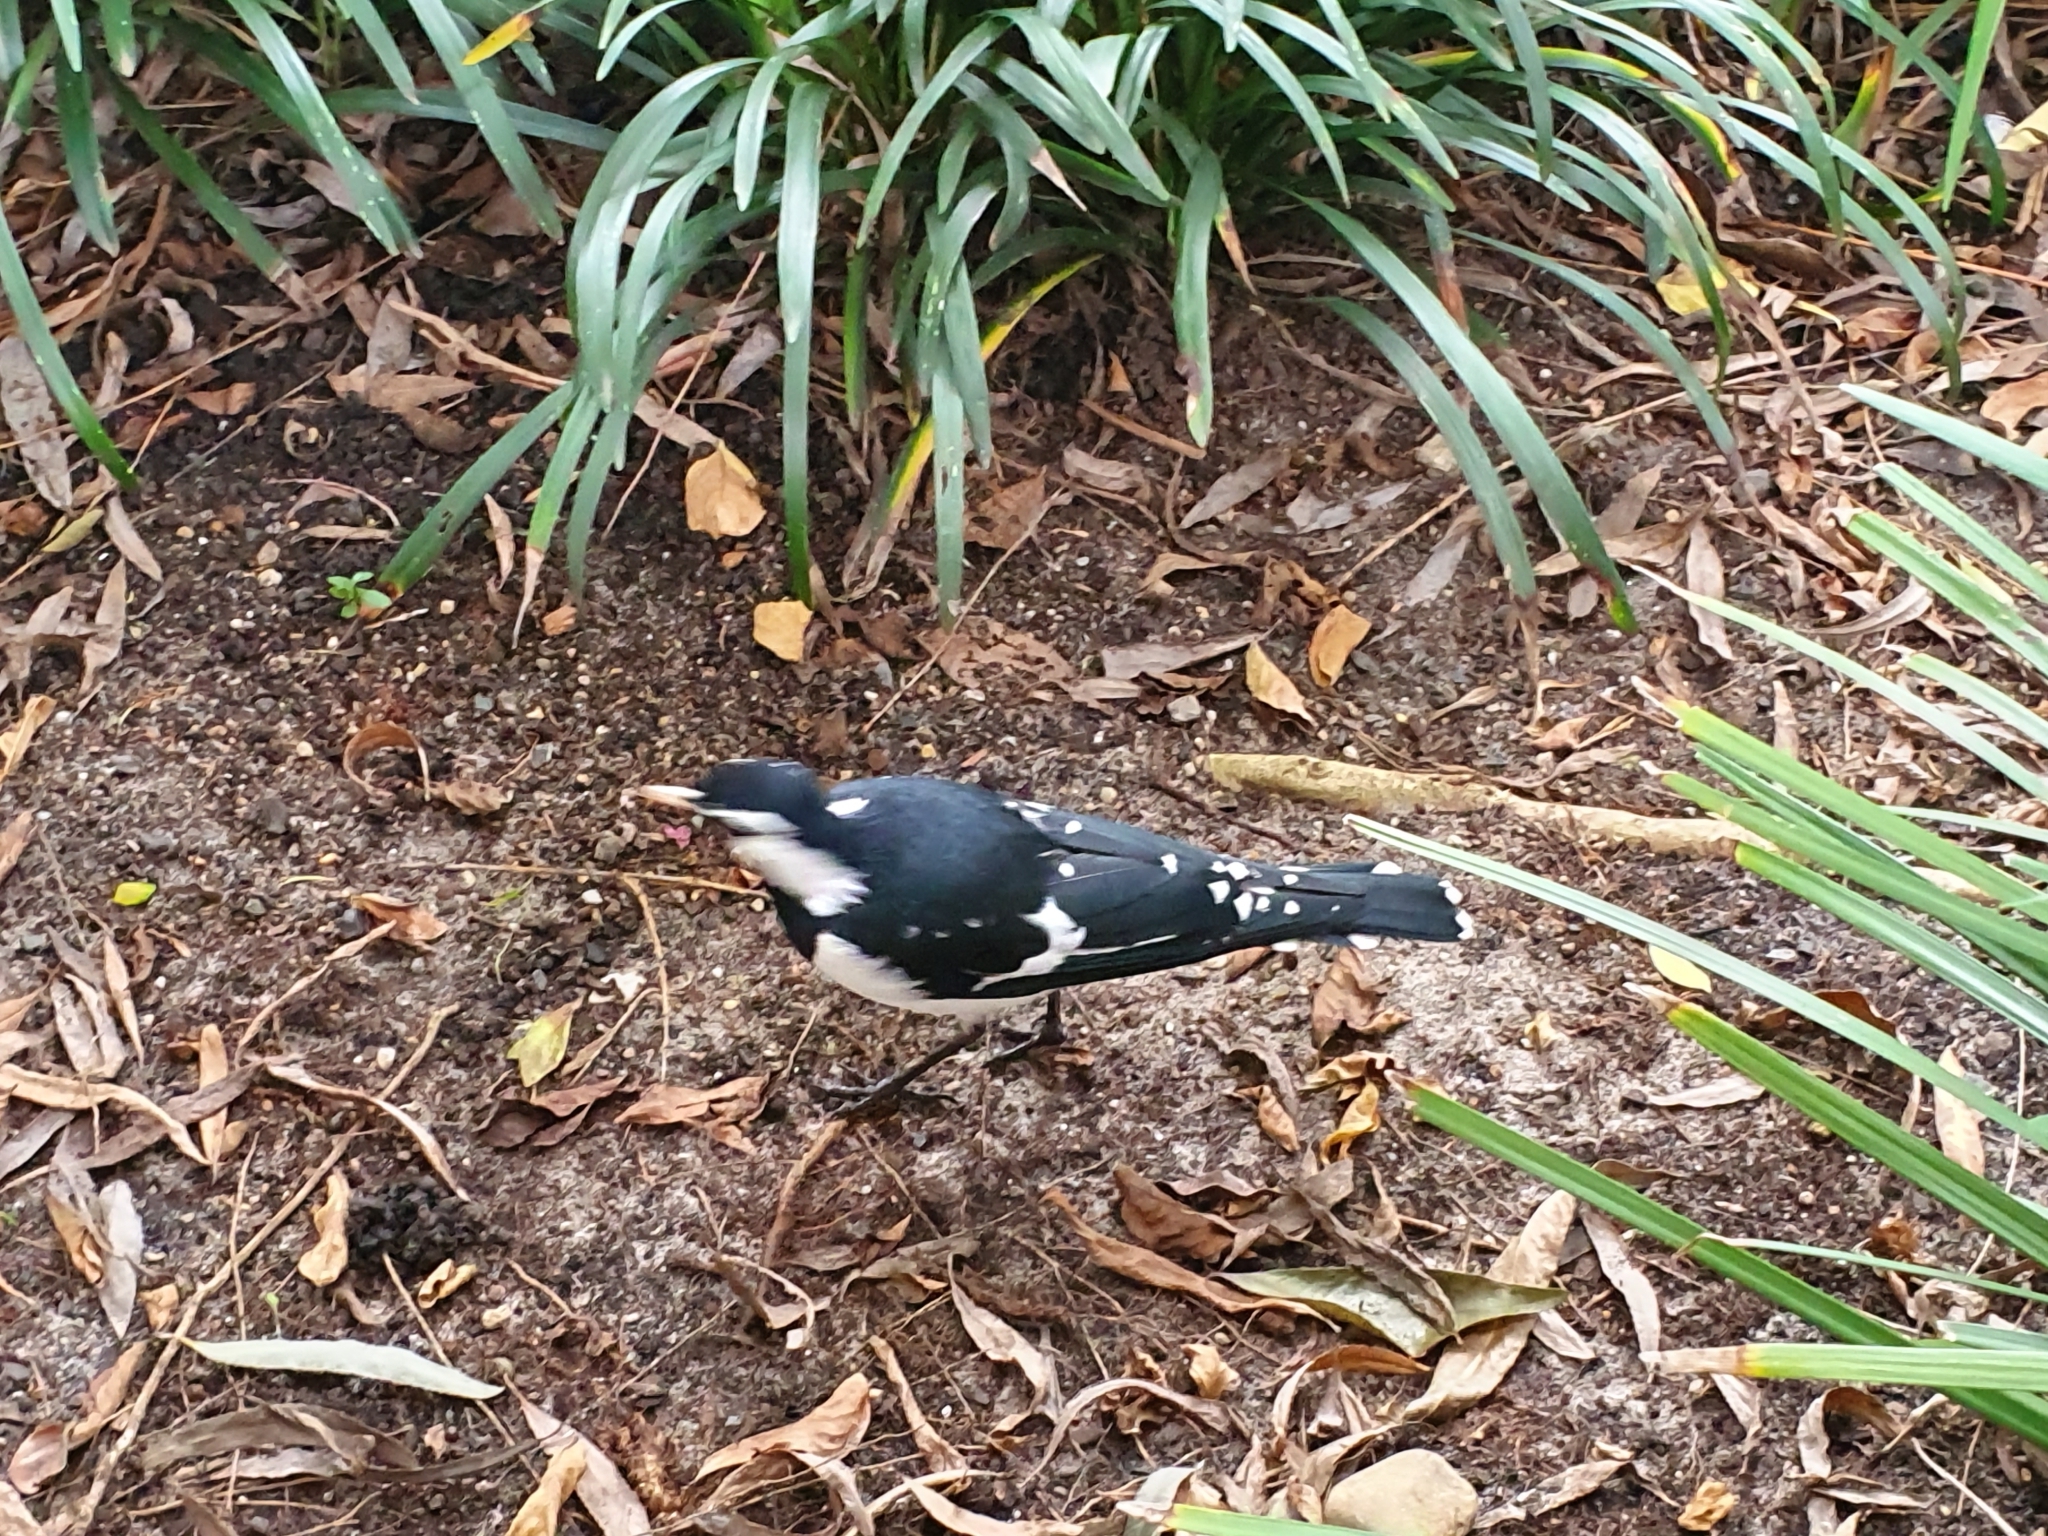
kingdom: Animalia
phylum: Chordata
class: Aves
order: Passeriformes
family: Monarchidae
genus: Grallina
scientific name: Grallina cyanoleuca
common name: Magpie-lark
